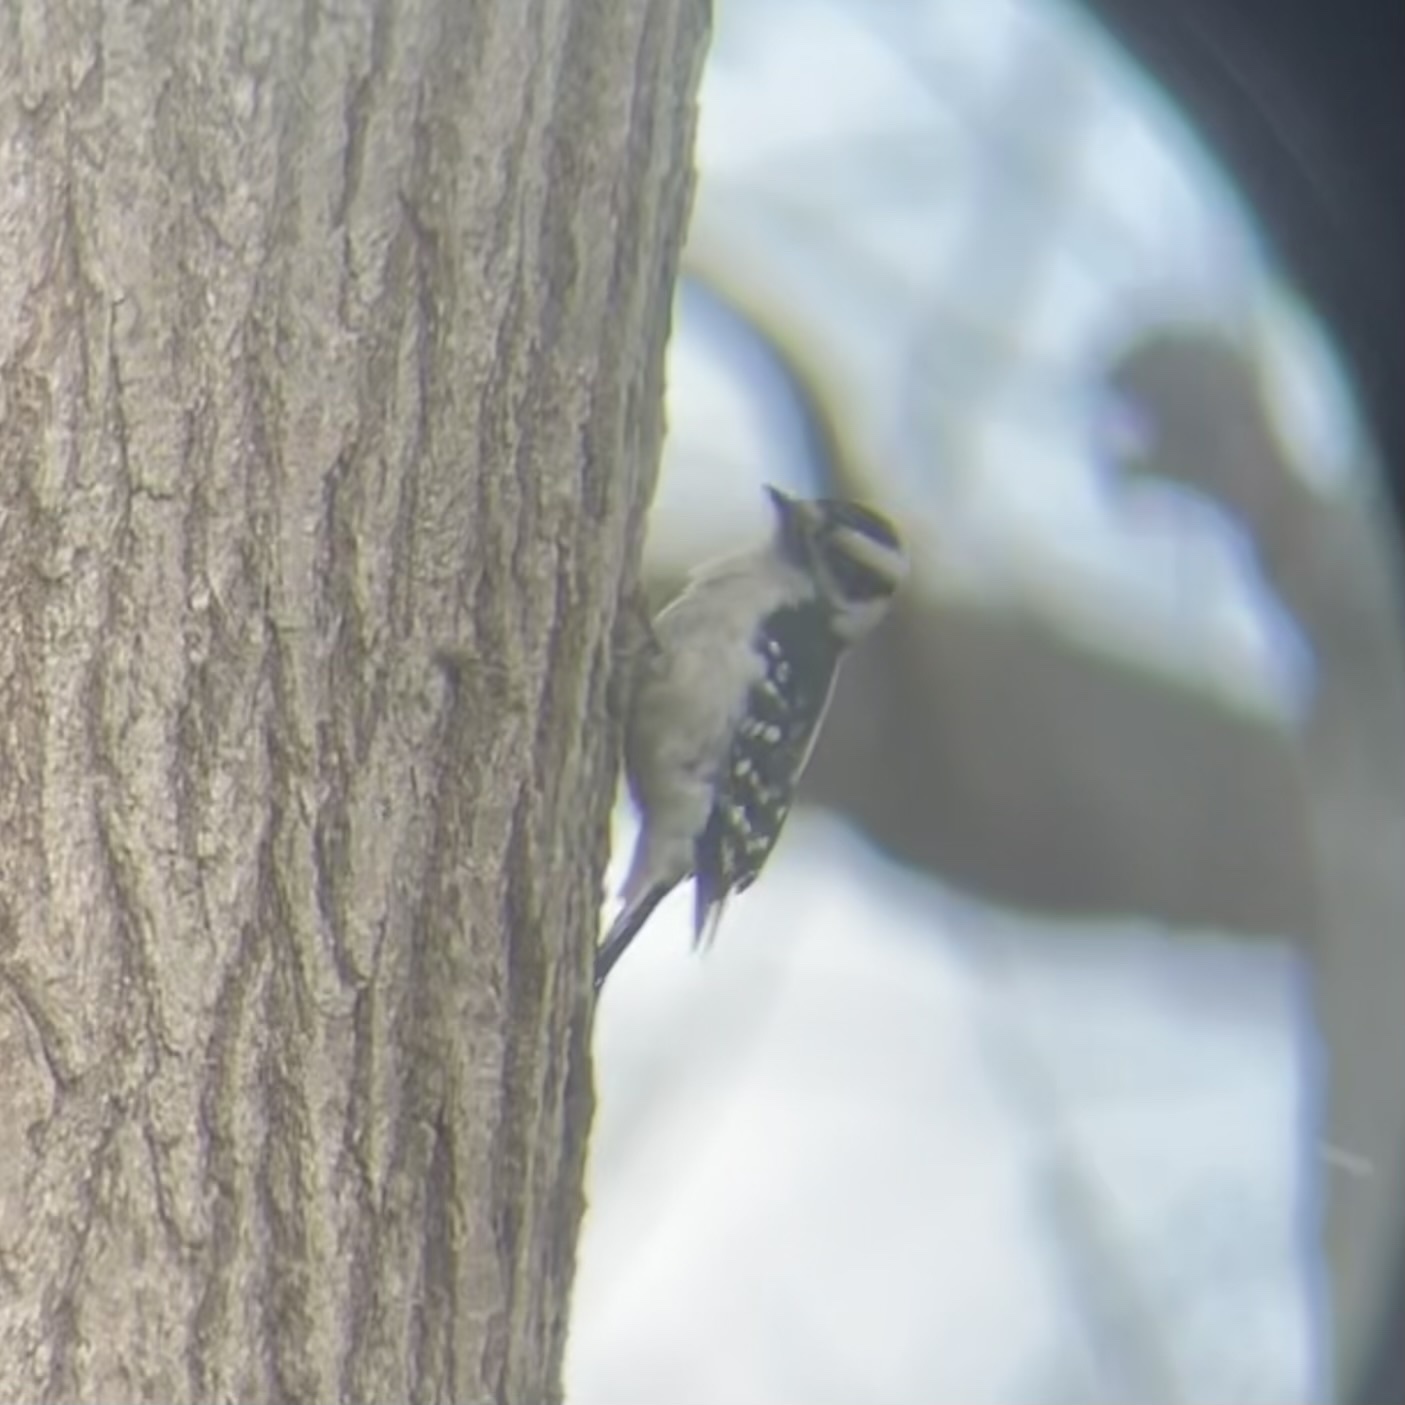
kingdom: Animalia
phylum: Chordata
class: Aves
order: Piciformes
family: Picidae
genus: Dryobates
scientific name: Dryobates pubescens
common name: Downy woodpecker
